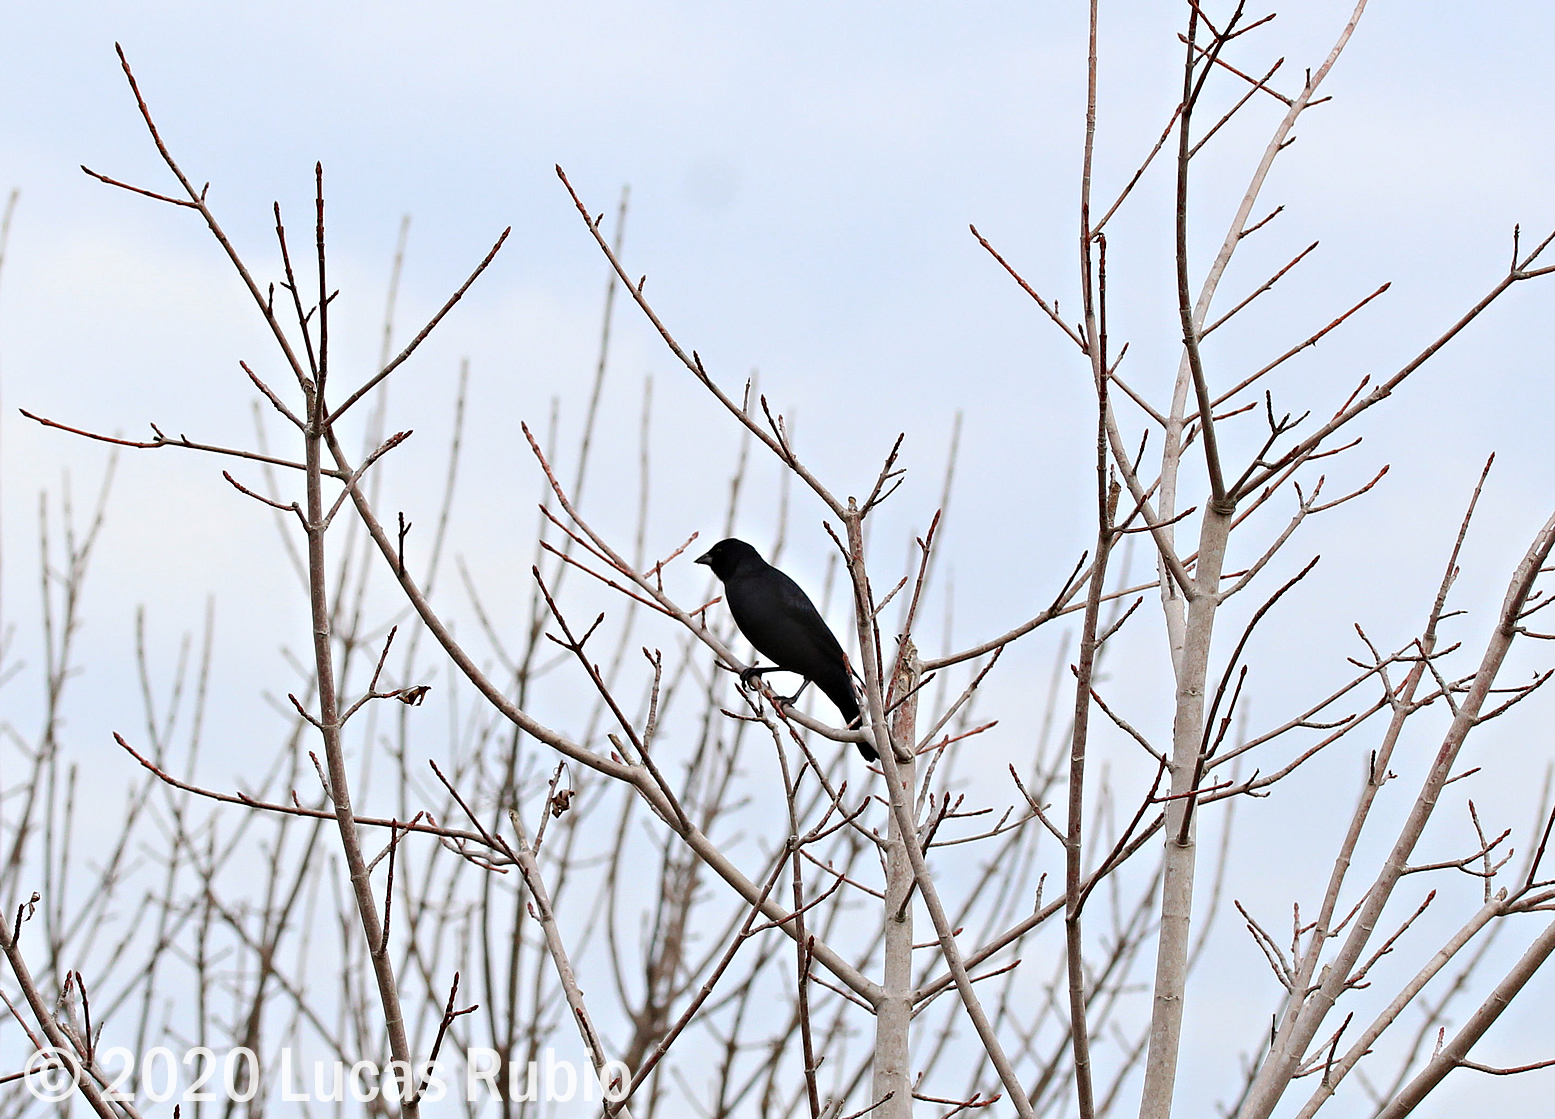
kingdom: Animalia
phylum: Chordata
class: Aves
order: Passeriformes
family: Icteridae
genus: Molothrus
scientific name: Molothrus bonariensis
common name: Shiny cowbird
